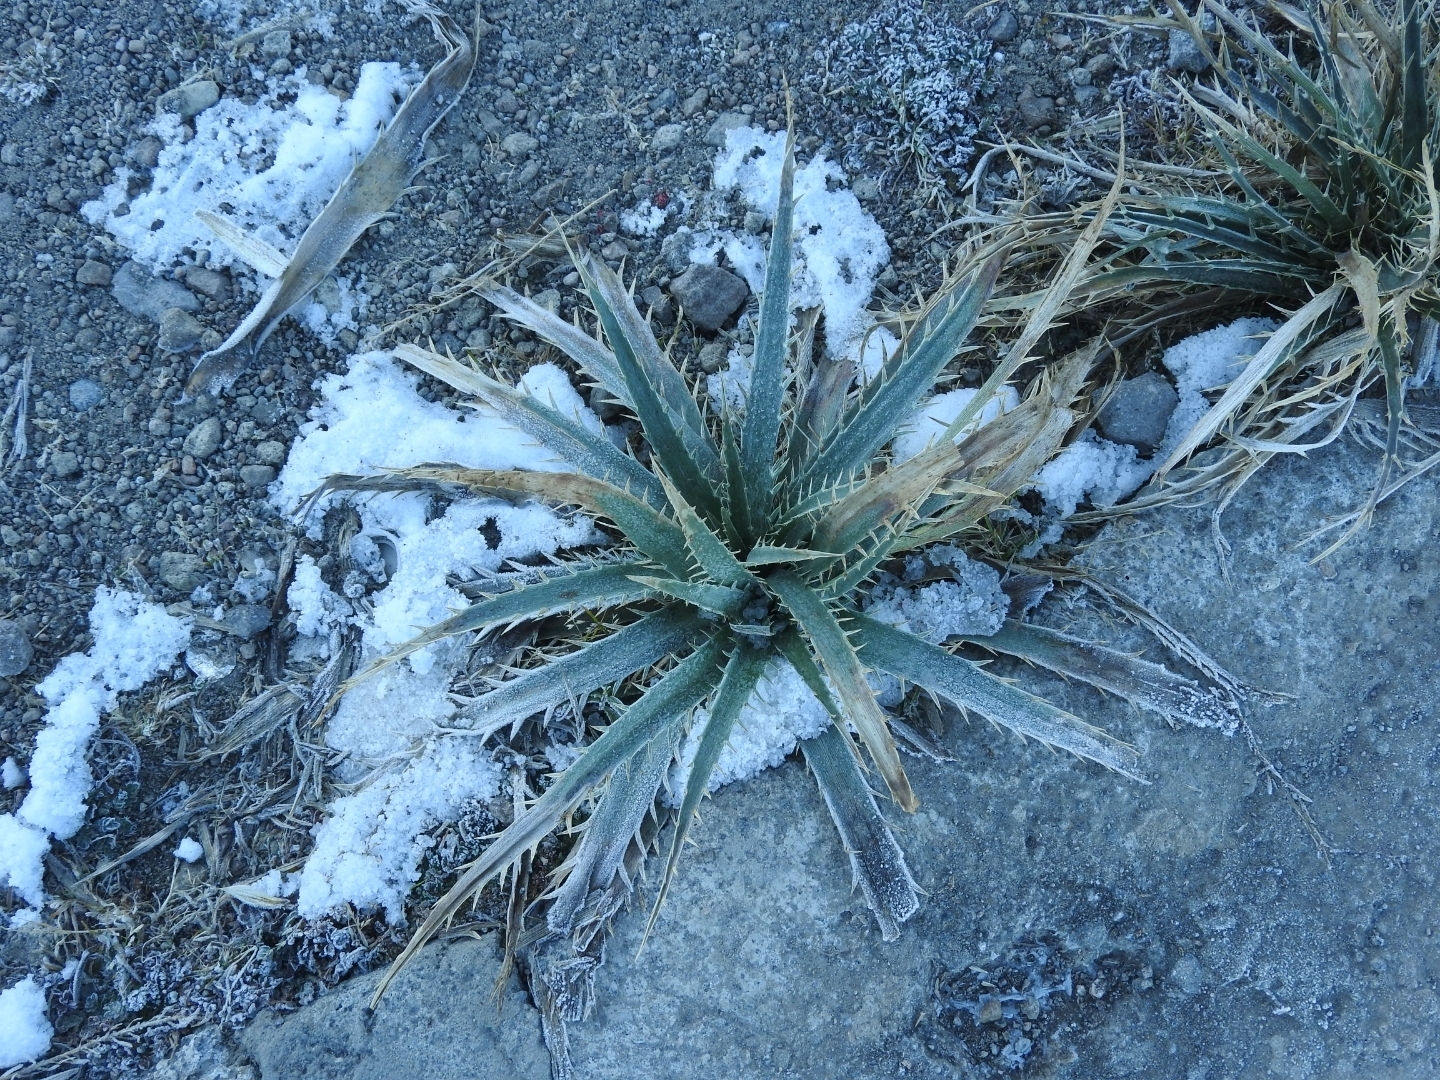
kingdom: Plantae
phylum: Tracheophyta
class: Magnoliopsida
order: Apiales
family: Apiaceae
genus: Eryngium
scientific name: Eryngium proteiflorum
